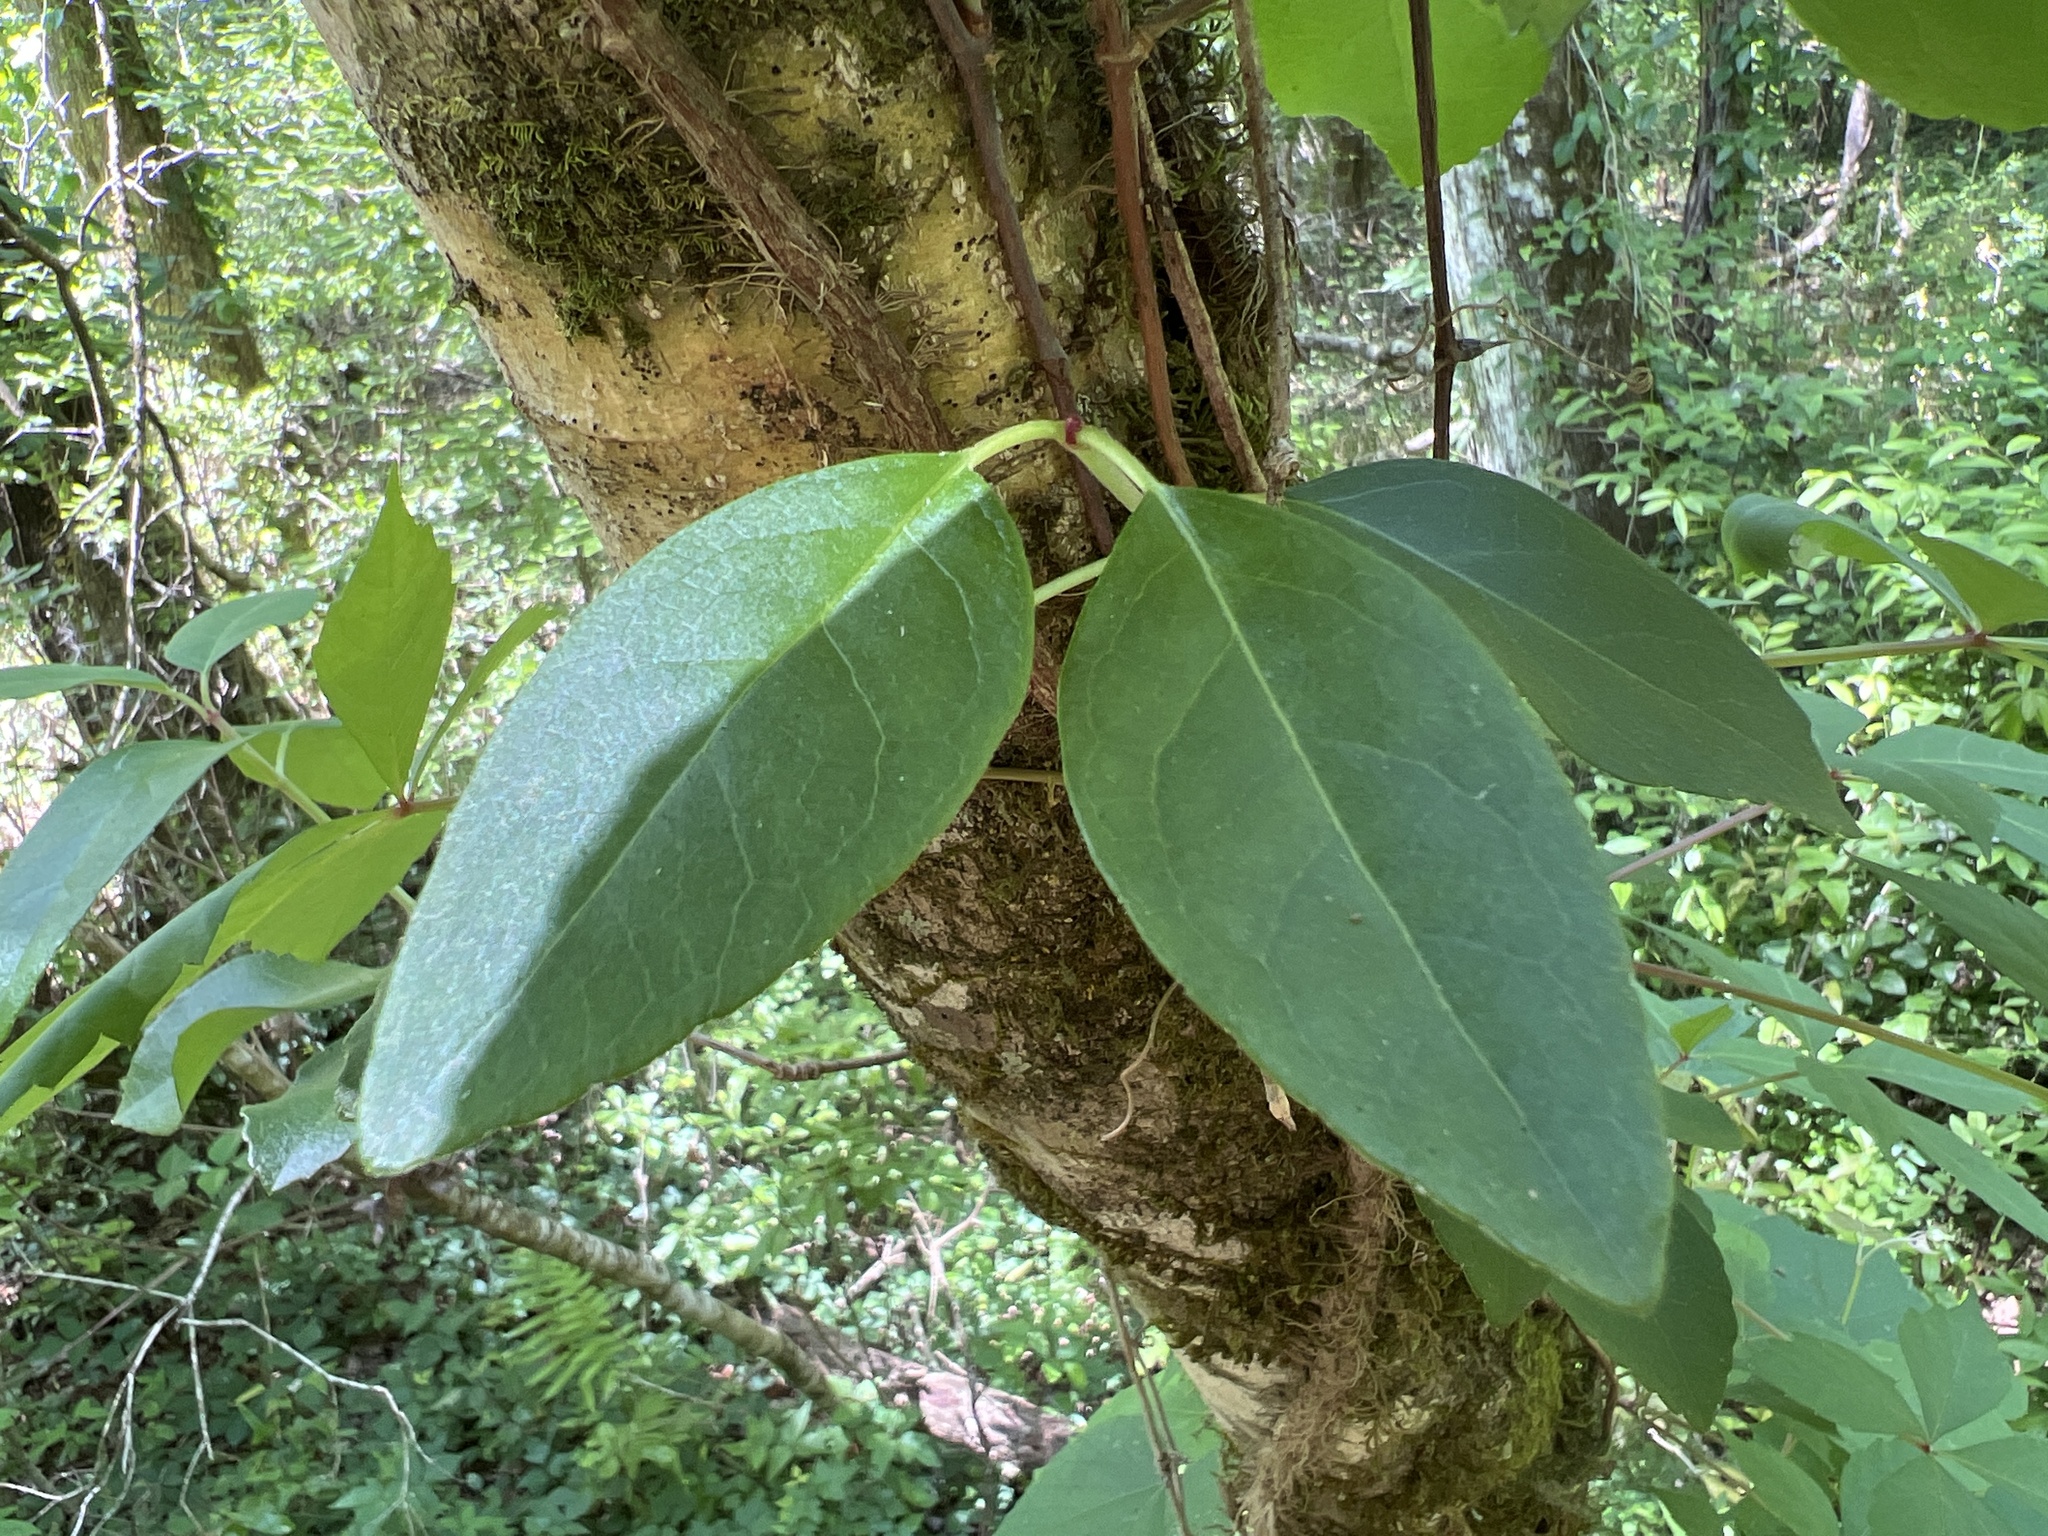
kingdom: Plantae
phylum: Tracheophyta
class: Magnoliopsida
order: Cornales
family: Hydrangeaceae
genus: Hydrangea
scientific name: Hydrangea barbara
